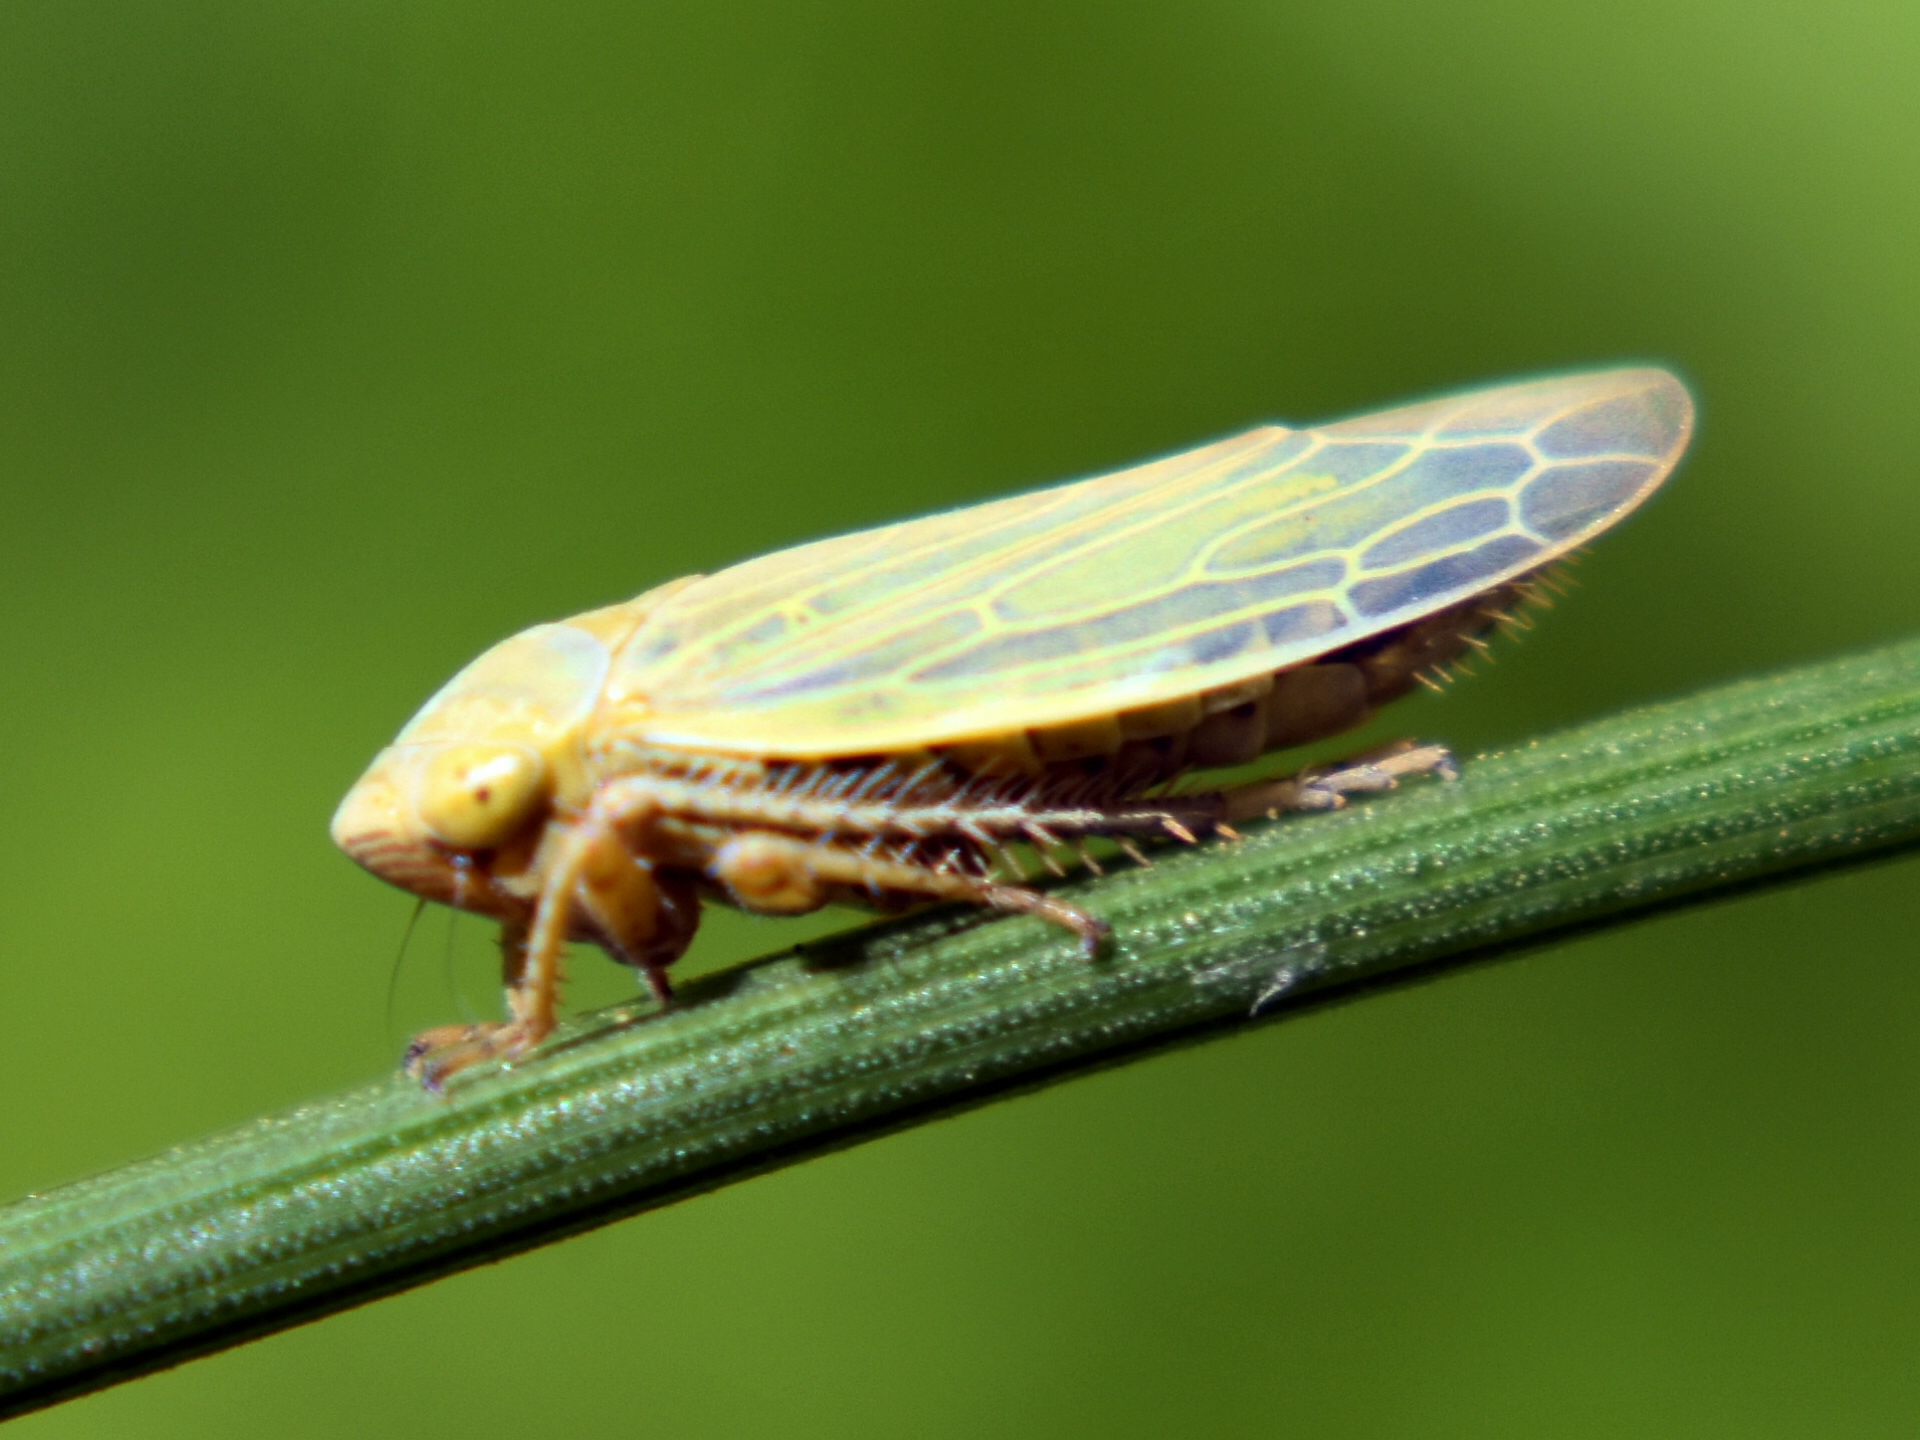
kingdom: Animalia
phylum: Arthropoda
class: Insecta
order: Hemiptera
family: Cicadellidae
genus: Thamnotettix
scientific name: Thamnotettix zelleri
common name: Leafhopper
